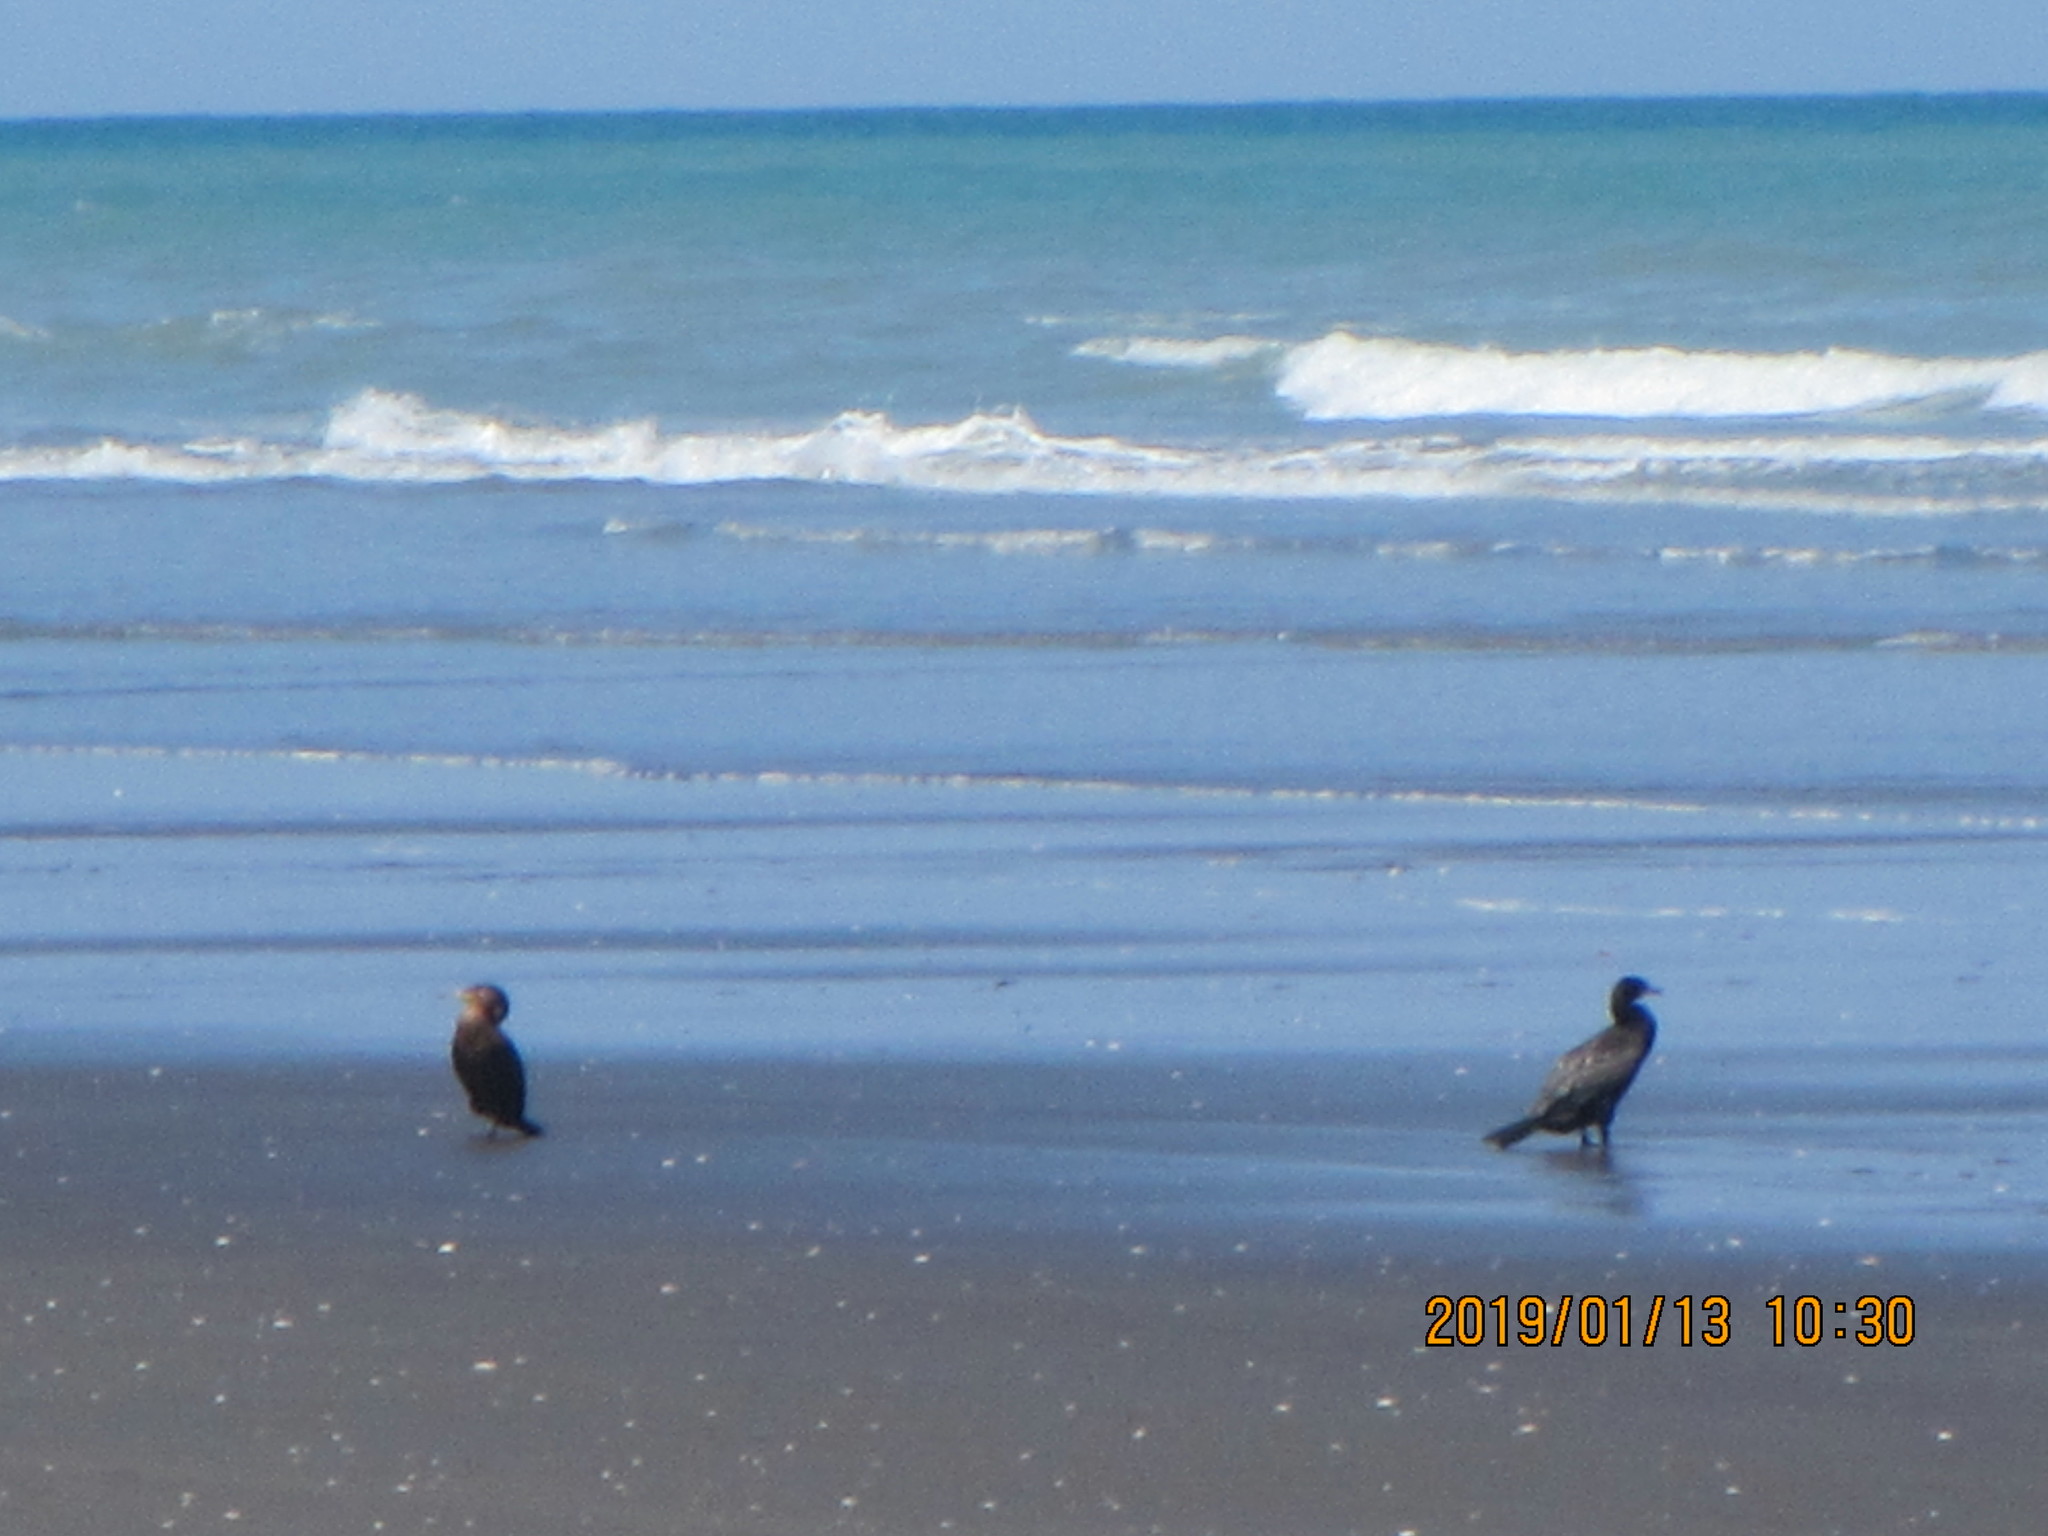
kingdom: Animalia
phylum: Chordata
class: Aves
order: Suliformes
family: Phalacrocoracidae
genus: Phalacrocorax
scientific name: Phalacrocorax carbo
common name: Great cormorant
